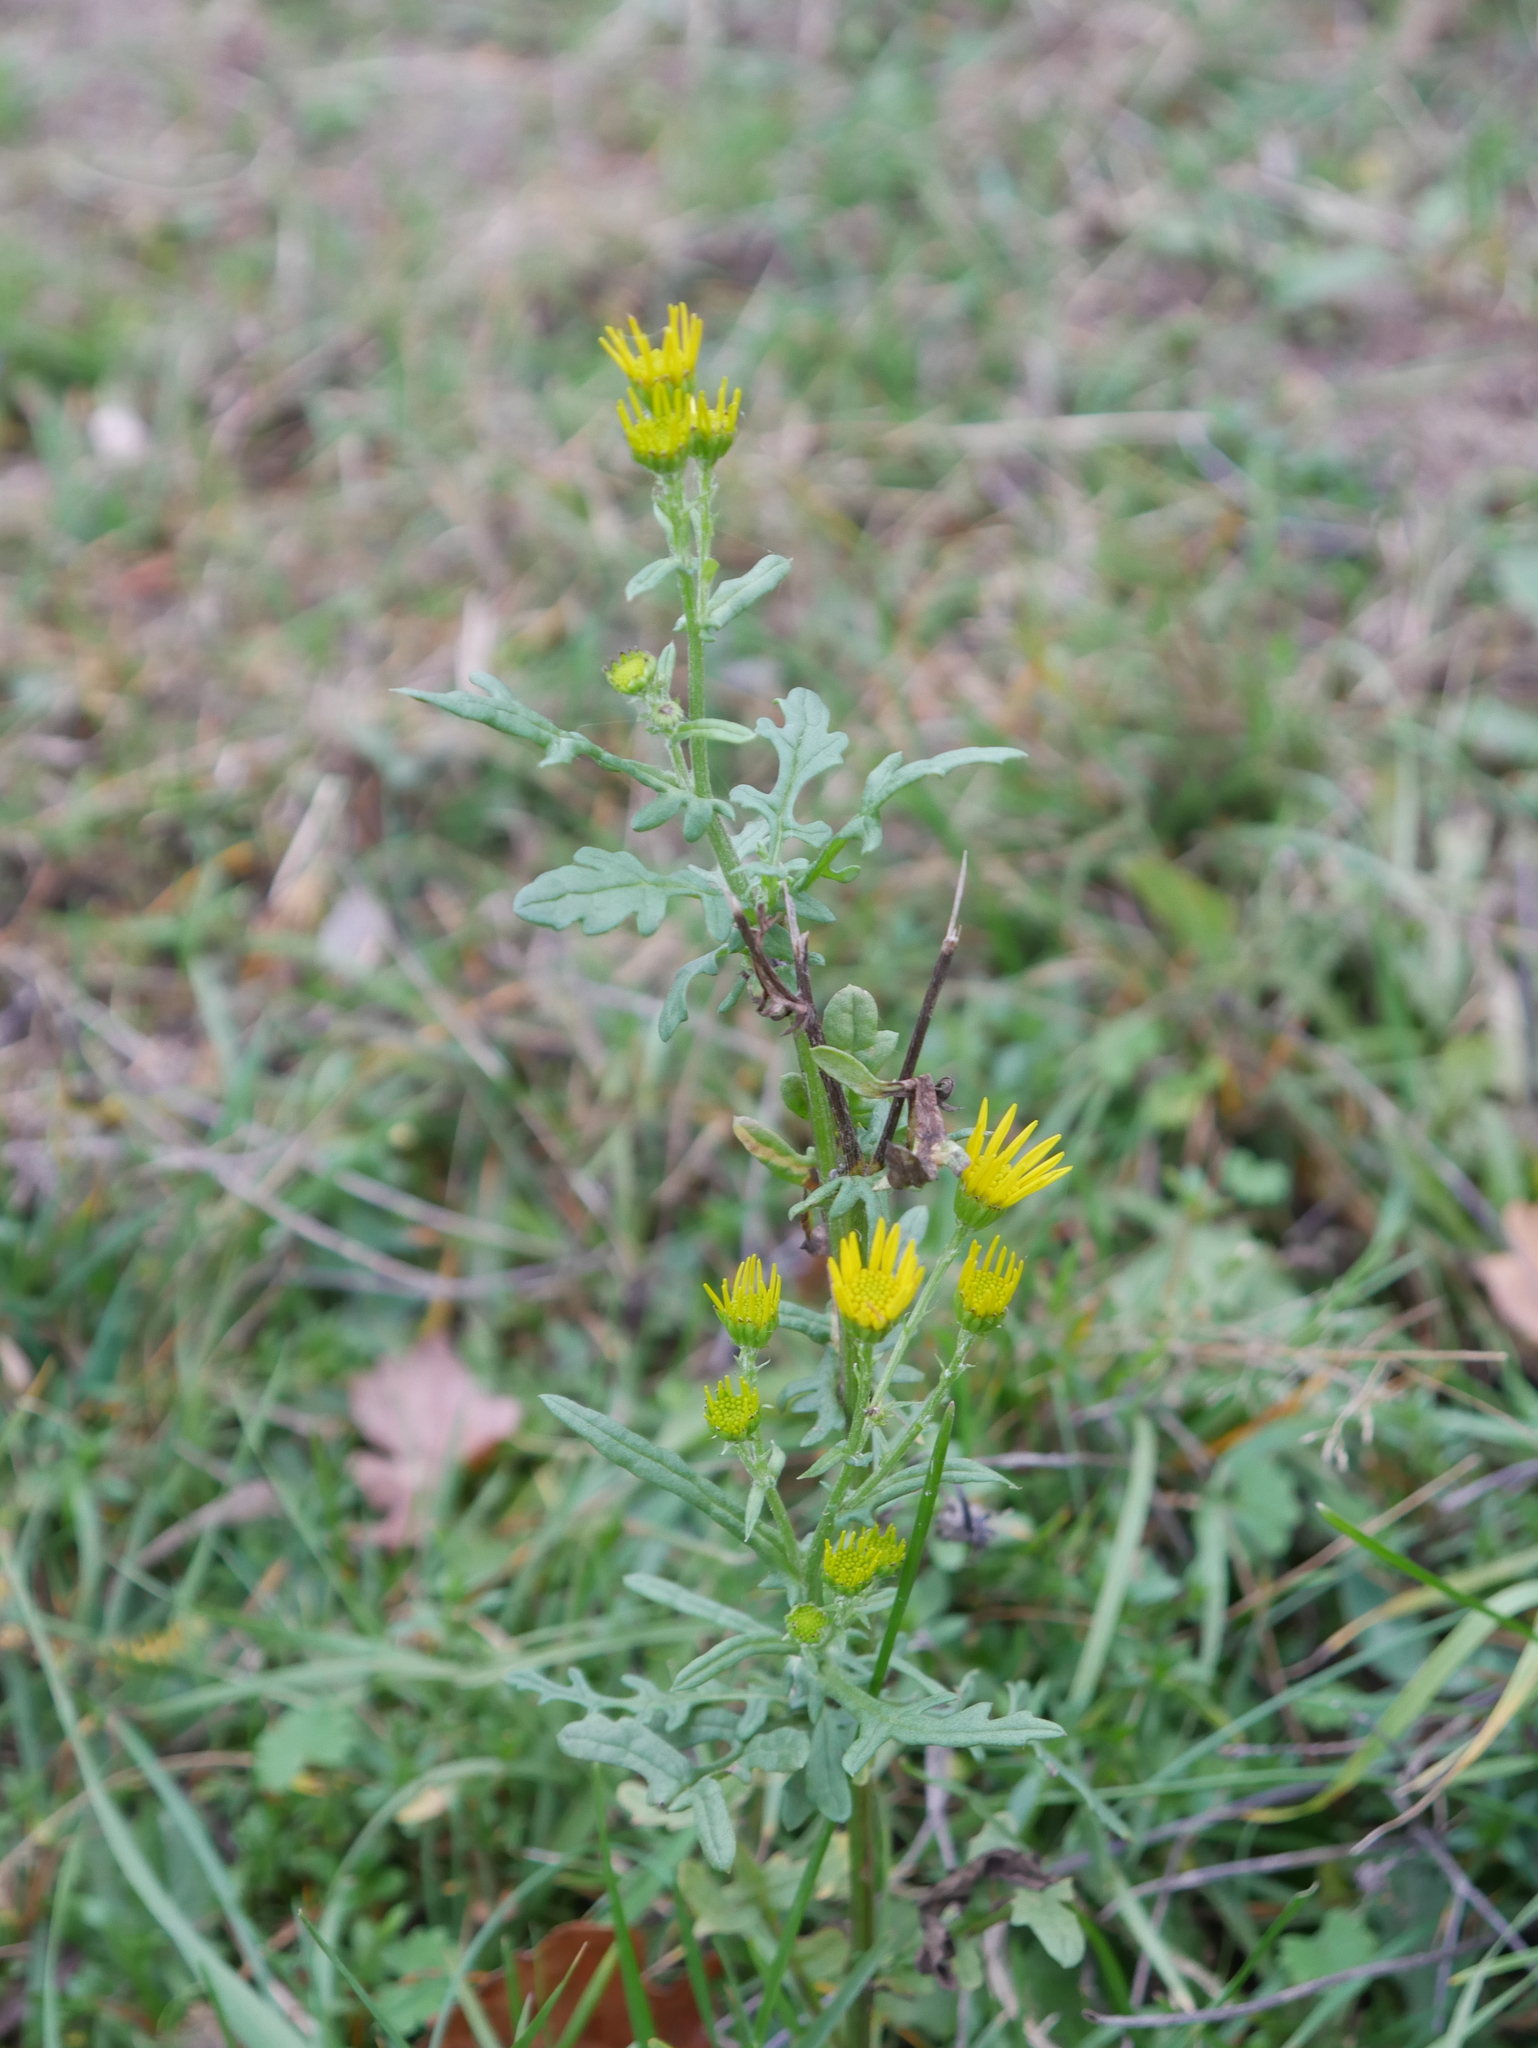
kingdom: Plantae
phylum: Tracheophyta
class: Magnoliopsida
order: Asterales
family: Asteraceae
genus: Jacobaea
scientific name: Jacobaea vulgaris
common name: Stinking willie
